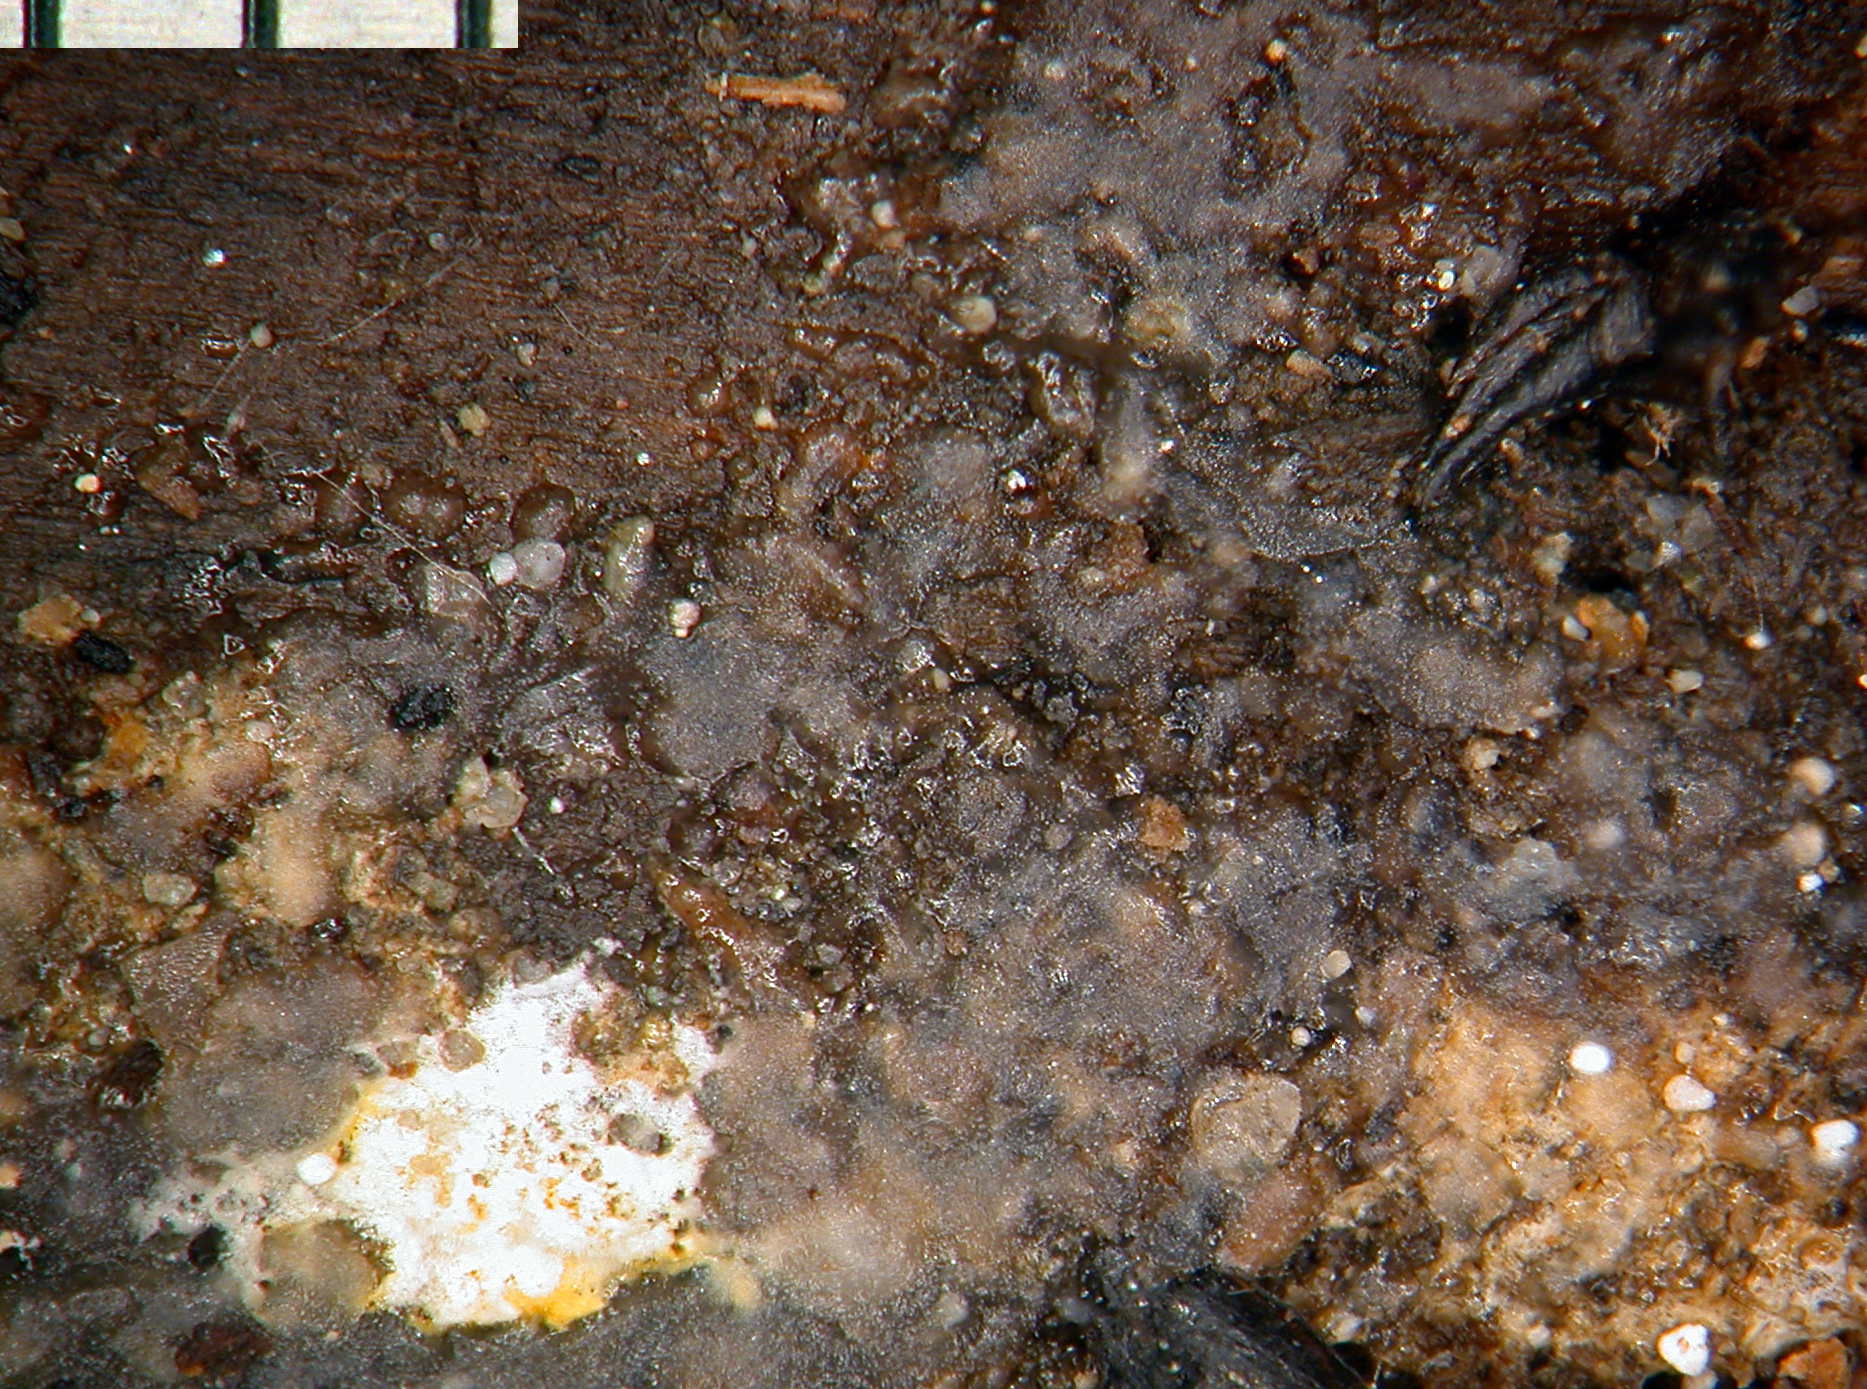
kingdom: Fungi
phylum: Basidiomycota
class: Agaricomycetes
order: Auriculariales
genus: Stypella
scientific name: Stypella grilletii
